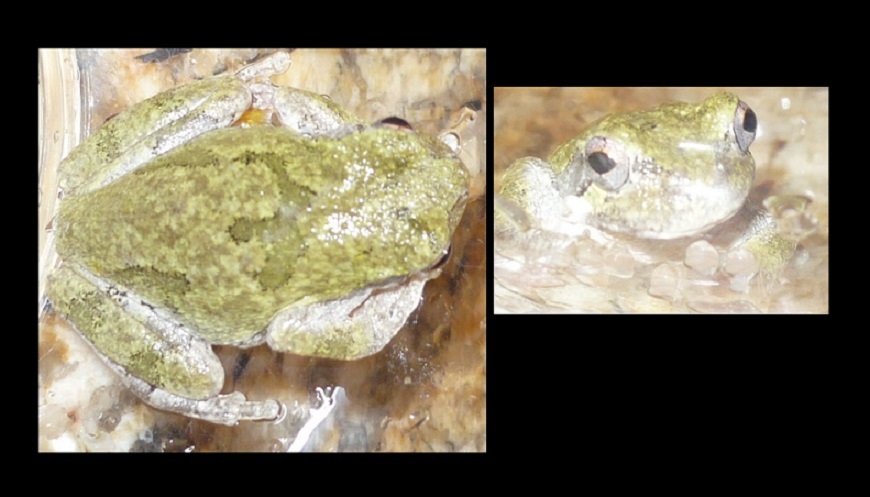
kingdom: Animalia
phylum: Chordata
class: Amphibia
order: Anura
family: Hylidae
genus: Dryophytes
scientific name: Dryophytes versicolor
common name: Gray treefrog
